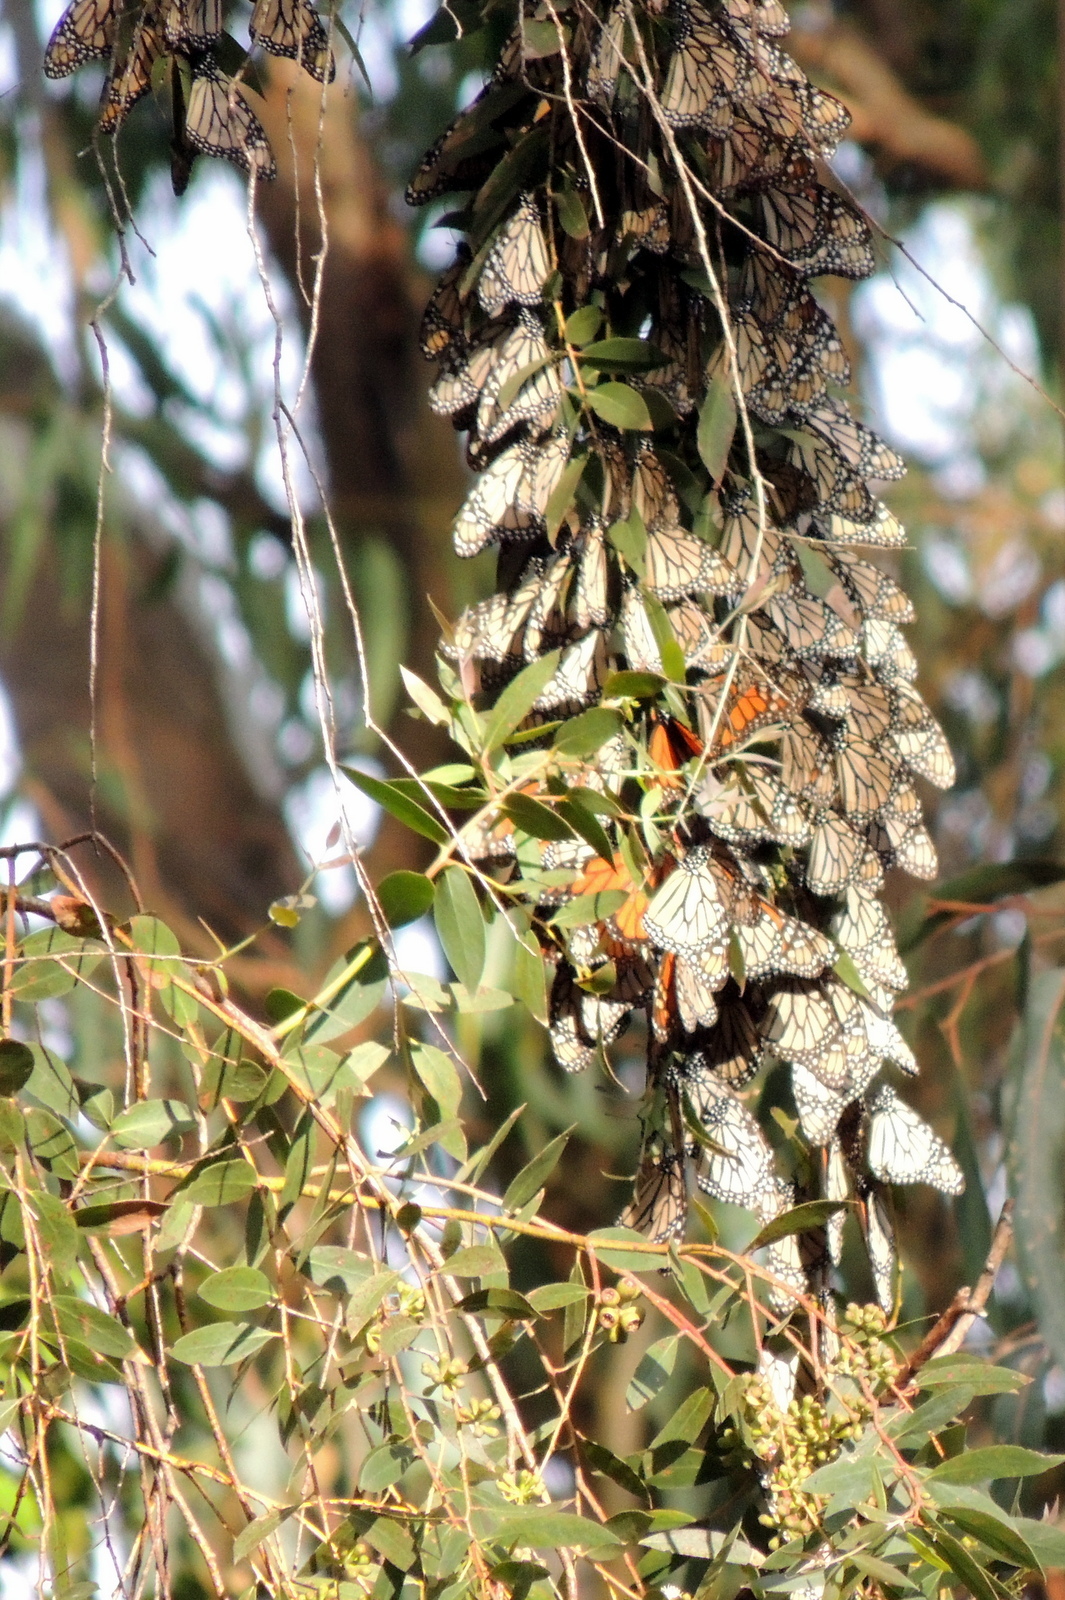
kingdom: Animalia
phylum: Arthropoda
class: Insecta
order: Lepidoptera
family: Nymphalidae
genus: Danaus
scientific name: Danaus plexippus
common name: Monarch
